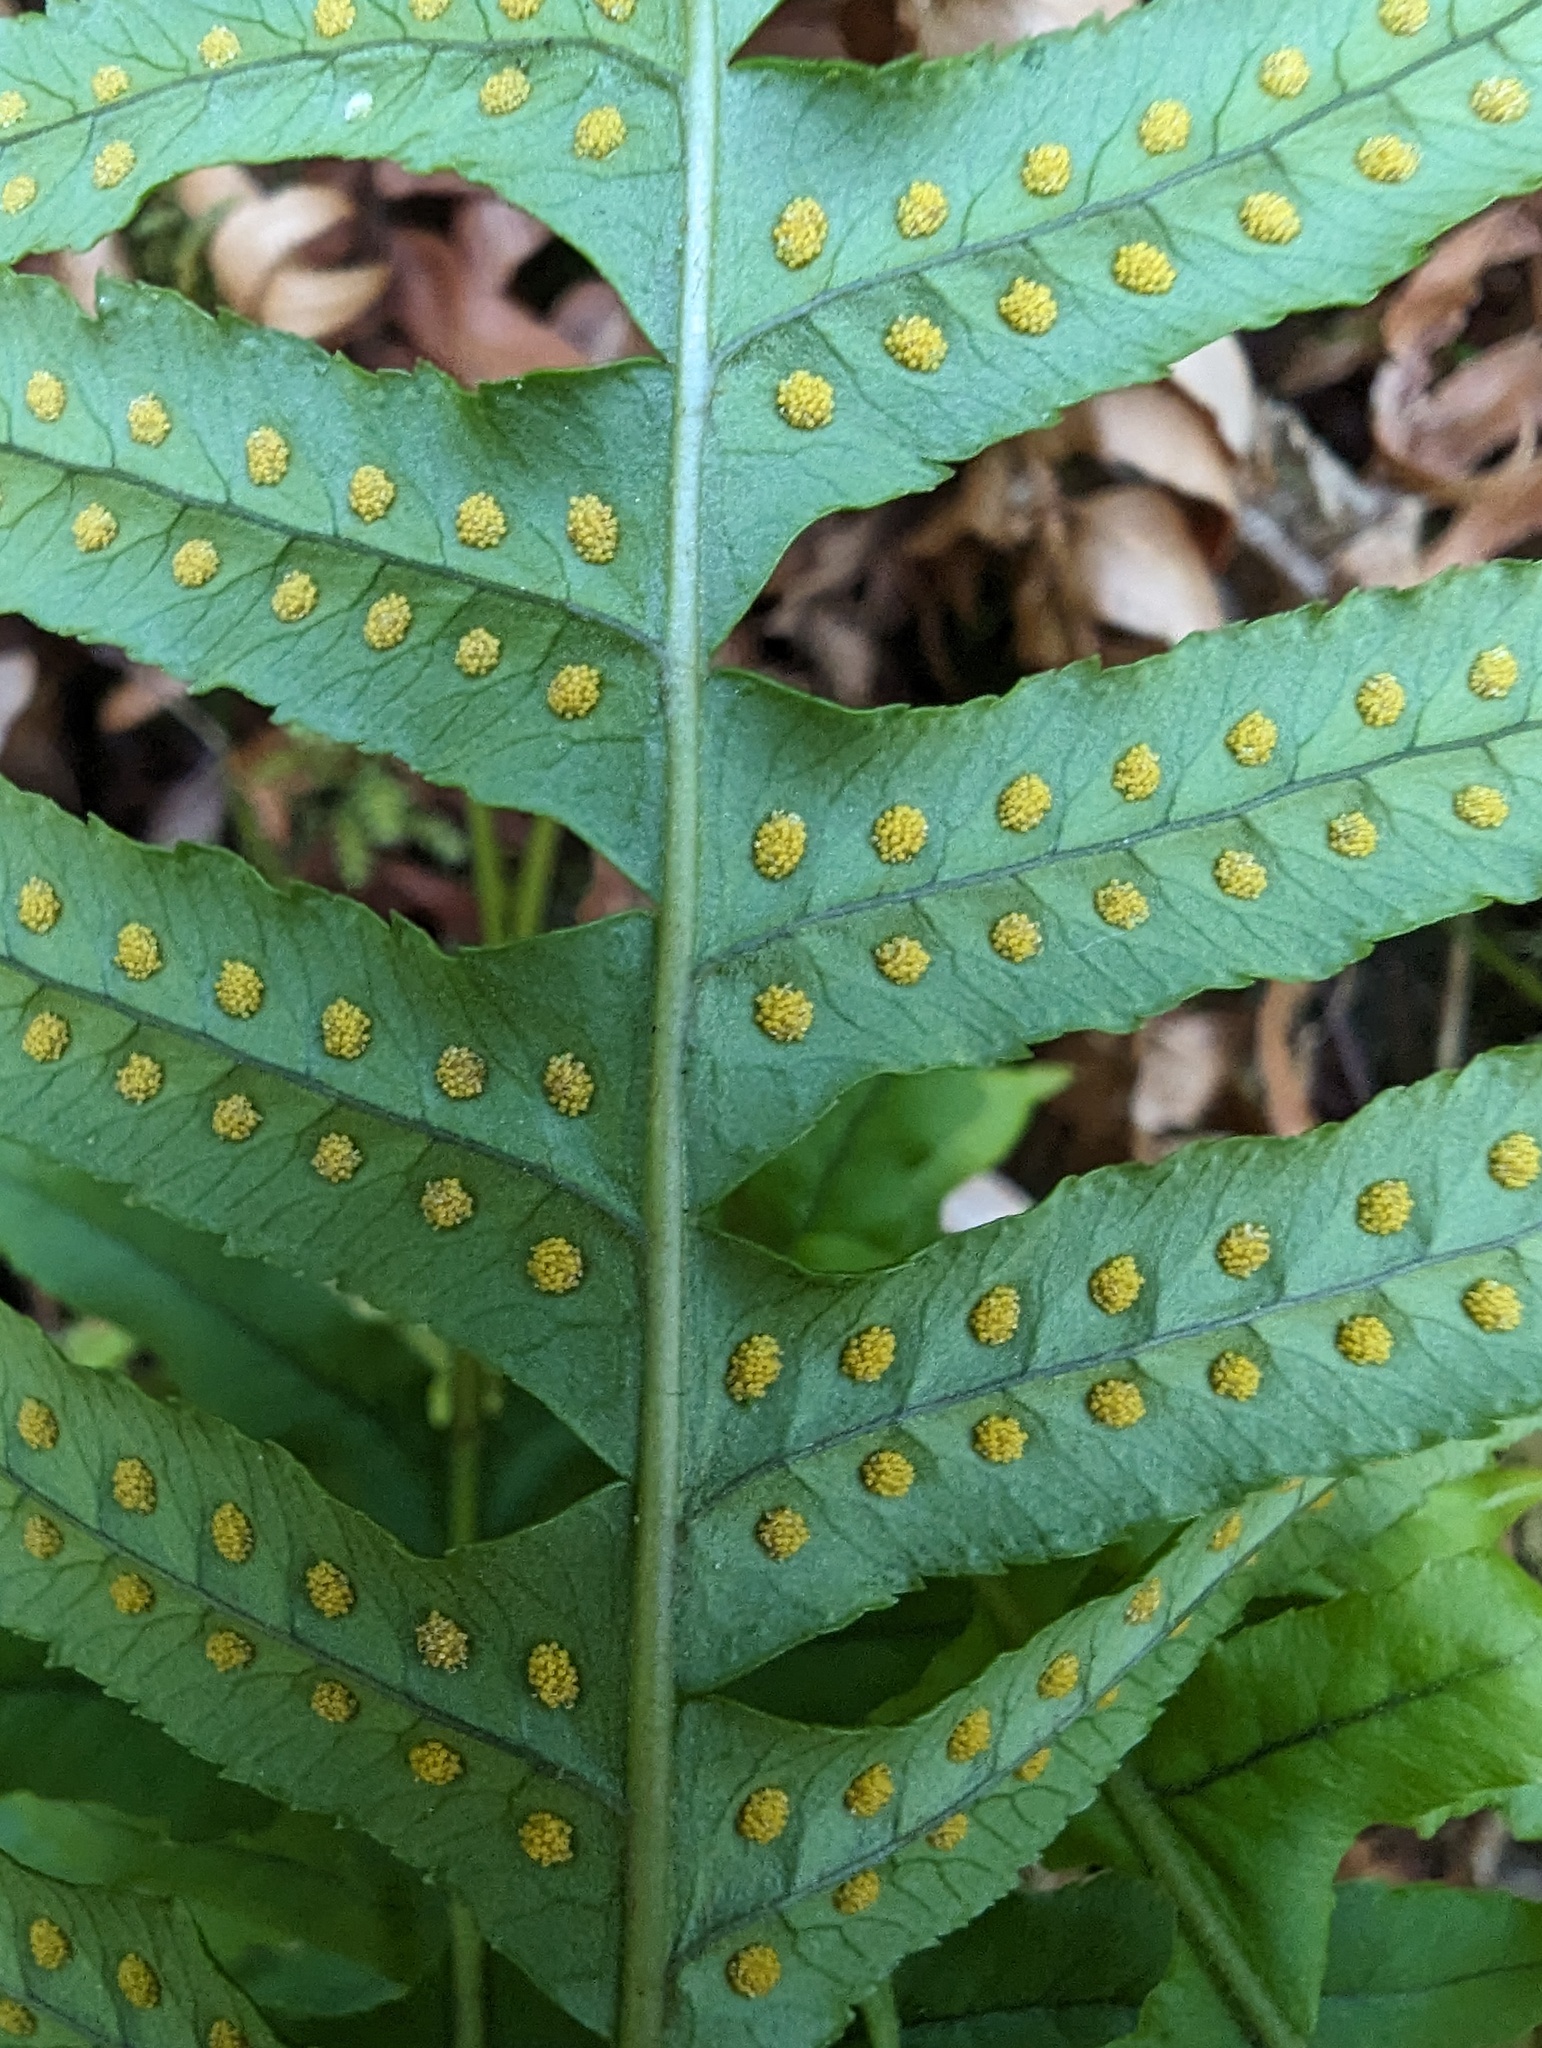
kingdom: Plantae
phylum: Tracheophyta
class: Polypodiopsida
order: Polypodiales
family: Polypodiaceae
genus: Polypodium
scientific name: Polypodium glycyrrhiza
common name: Licorice fern
